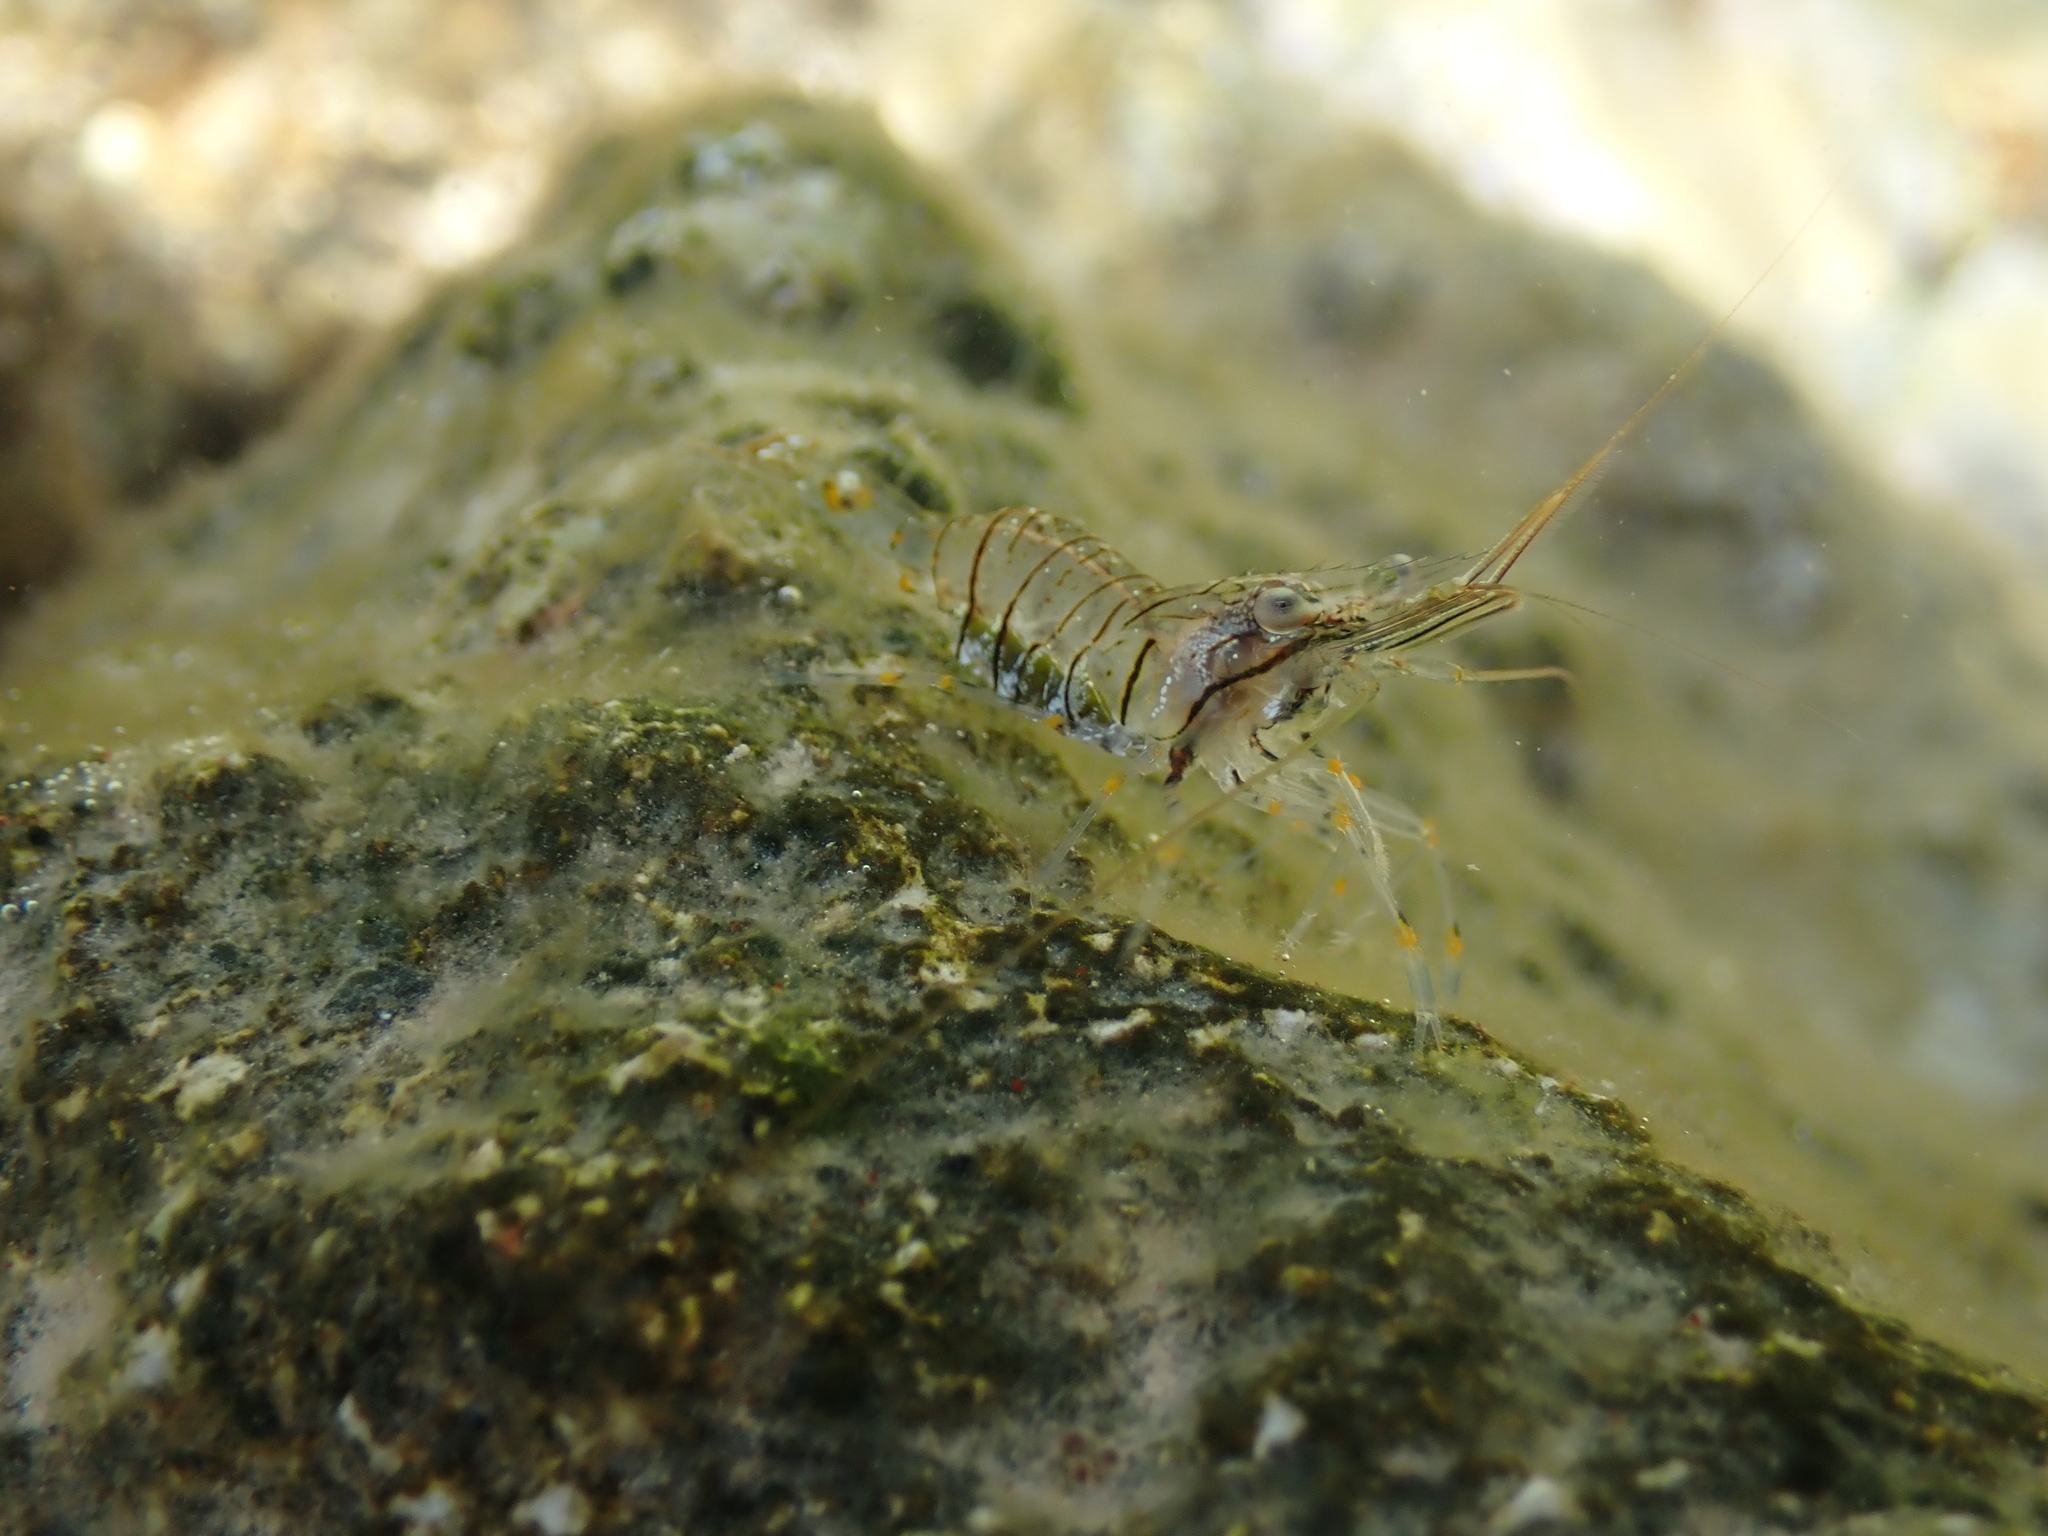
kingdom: Animalia
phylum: Arthropoda
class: Malacostraca
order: Decapoda
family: Palaemonidae
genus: Palaemon
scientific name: Palaemon elegans
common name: Grass prawm
